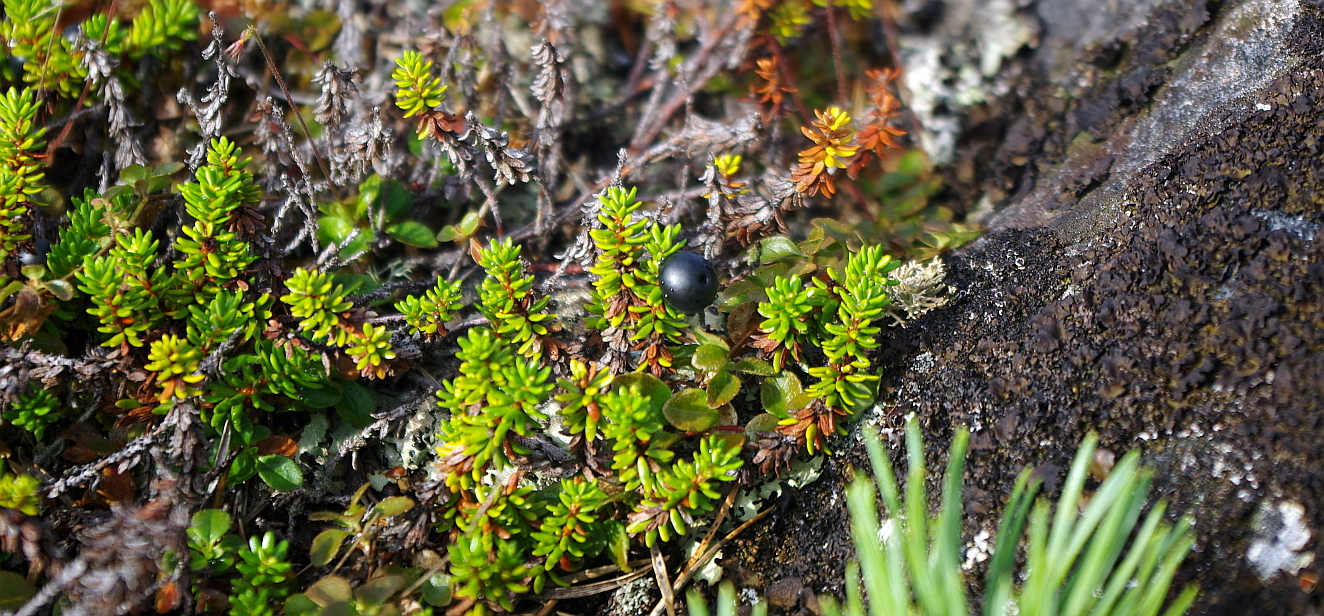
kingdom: Plantae
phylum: Tracheophyta
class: Magnoliopsida
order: Ericales
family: Ericaceae
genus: Empetrum
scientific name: Empetrum nigrum
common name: Black crowberry
